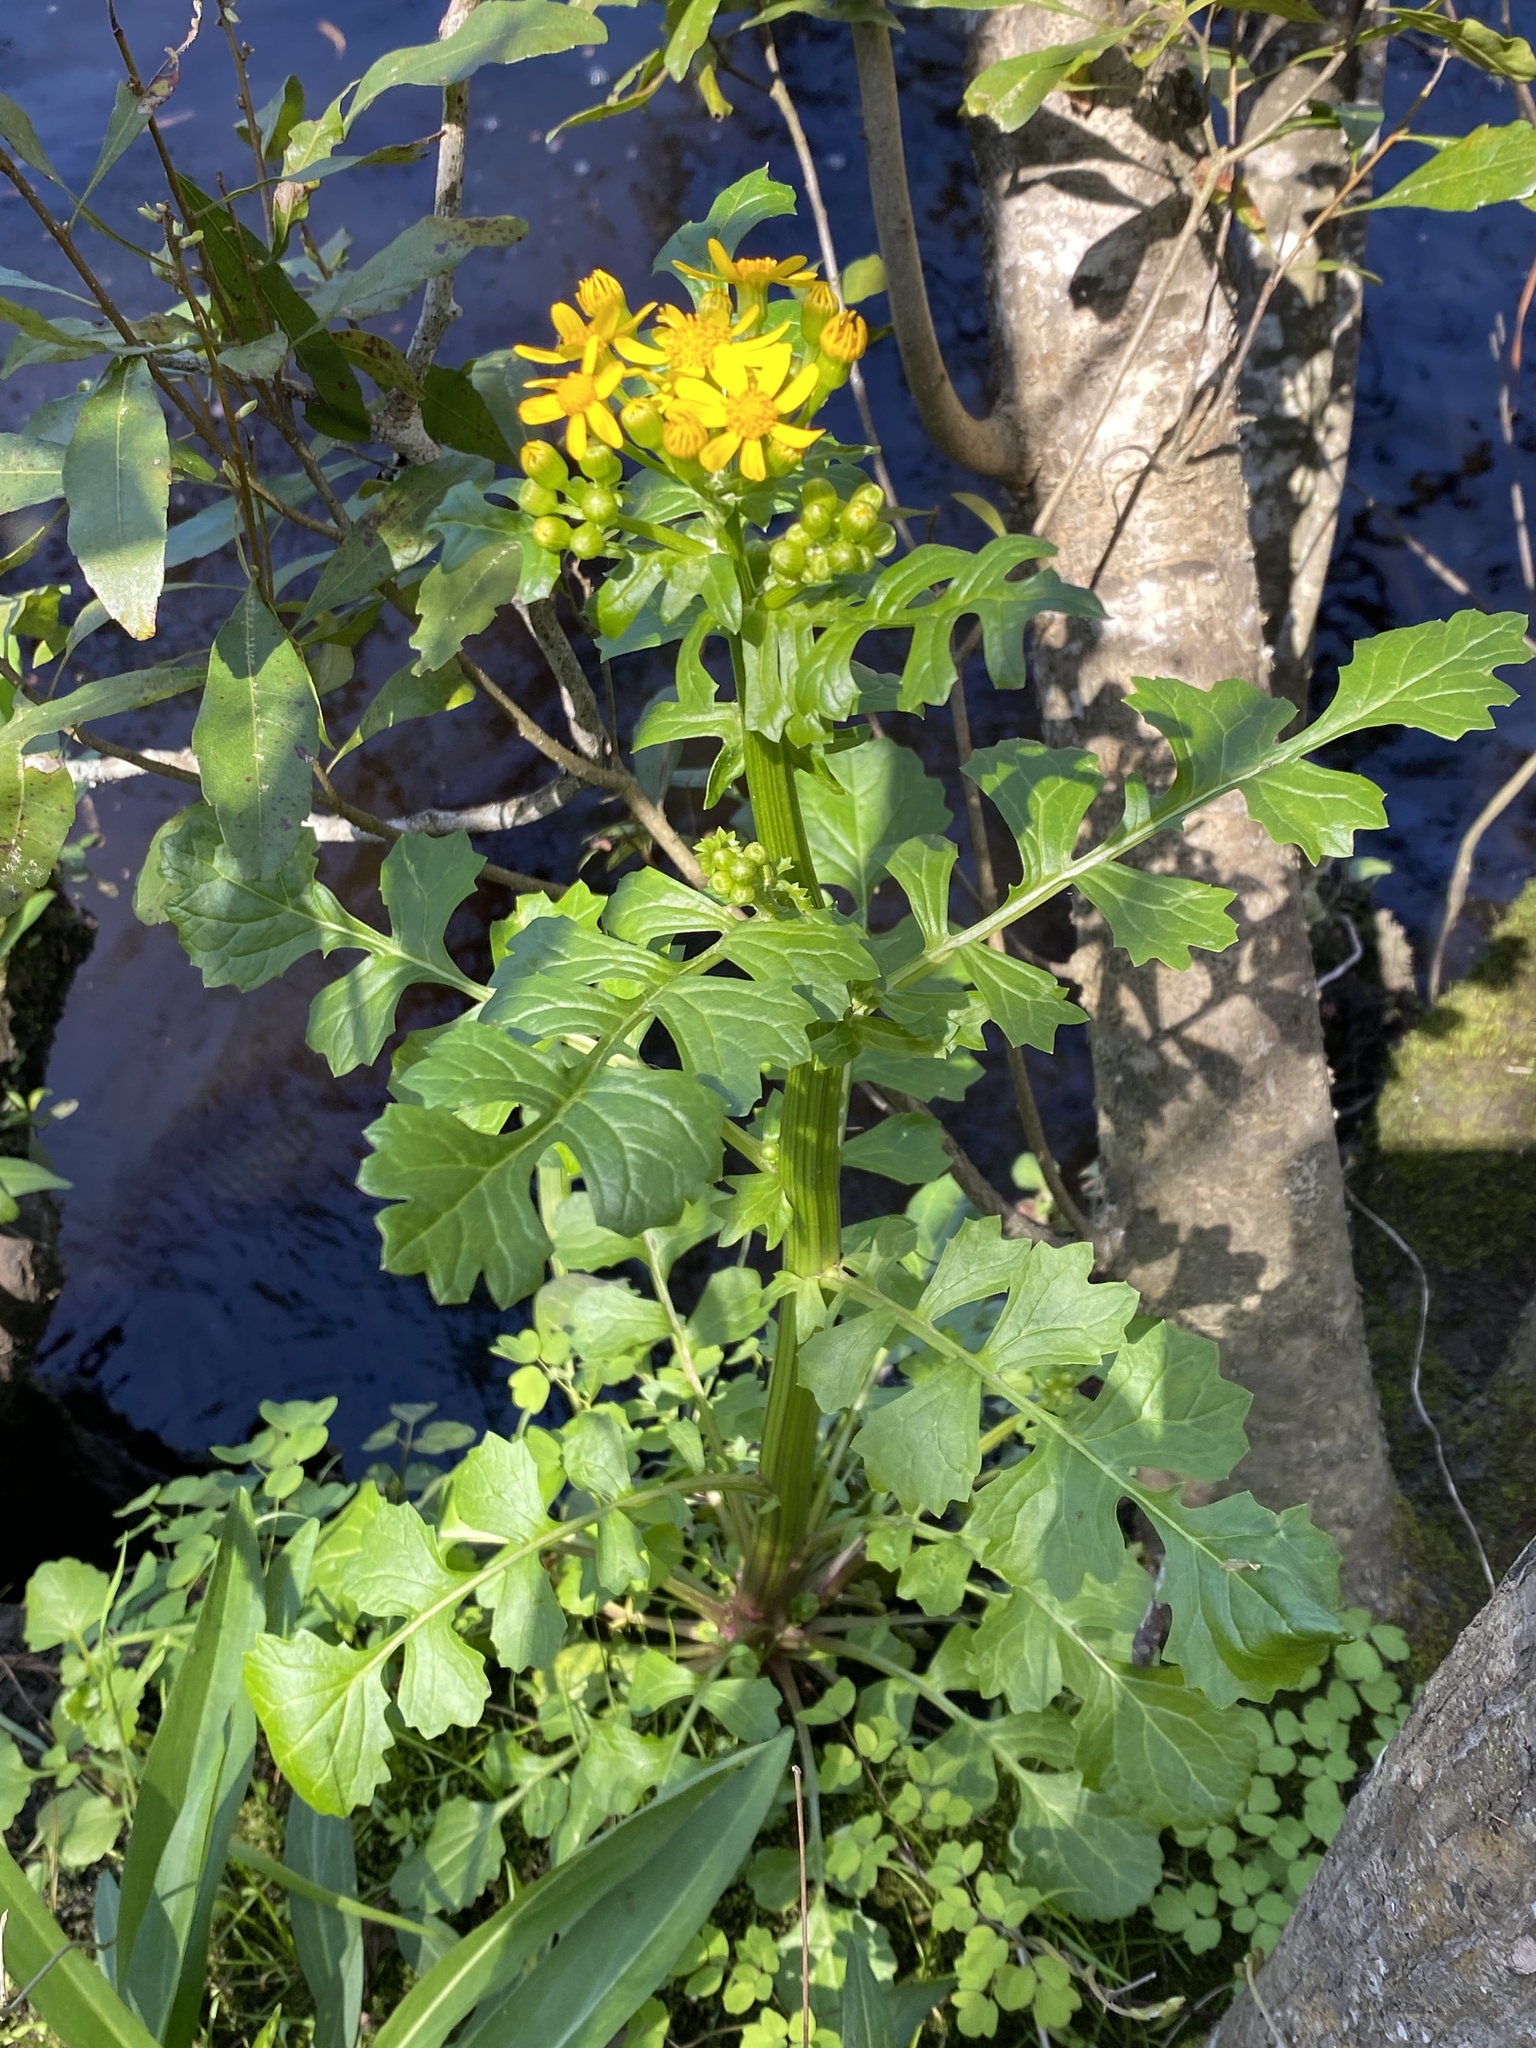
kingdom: Plantae
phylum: Tracheophyta
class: Magnoliopsida
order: Asterales
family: Asteraceae
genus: Packera
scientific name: Packera glabella
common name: Butterweed
